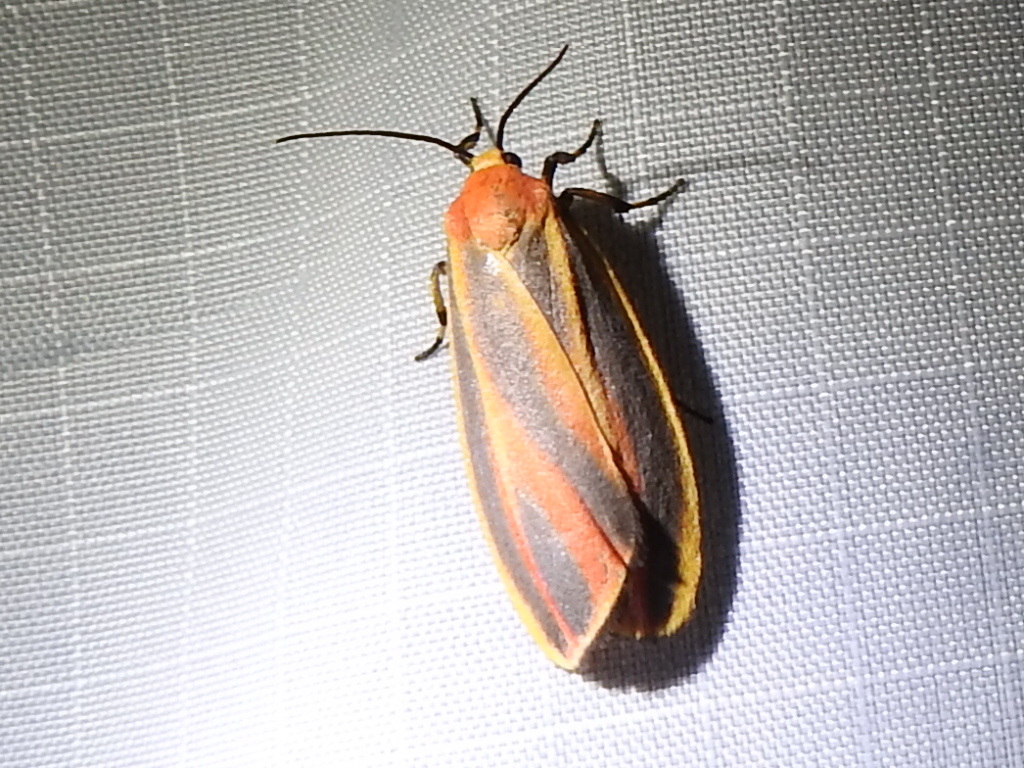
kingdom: Animalia
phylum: Arthropoda
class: Insecta
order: Lepidoptera
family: Erebidae
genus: Hypoprepia
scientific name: Hypoprepia fucosa
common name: Painted lichen moth
